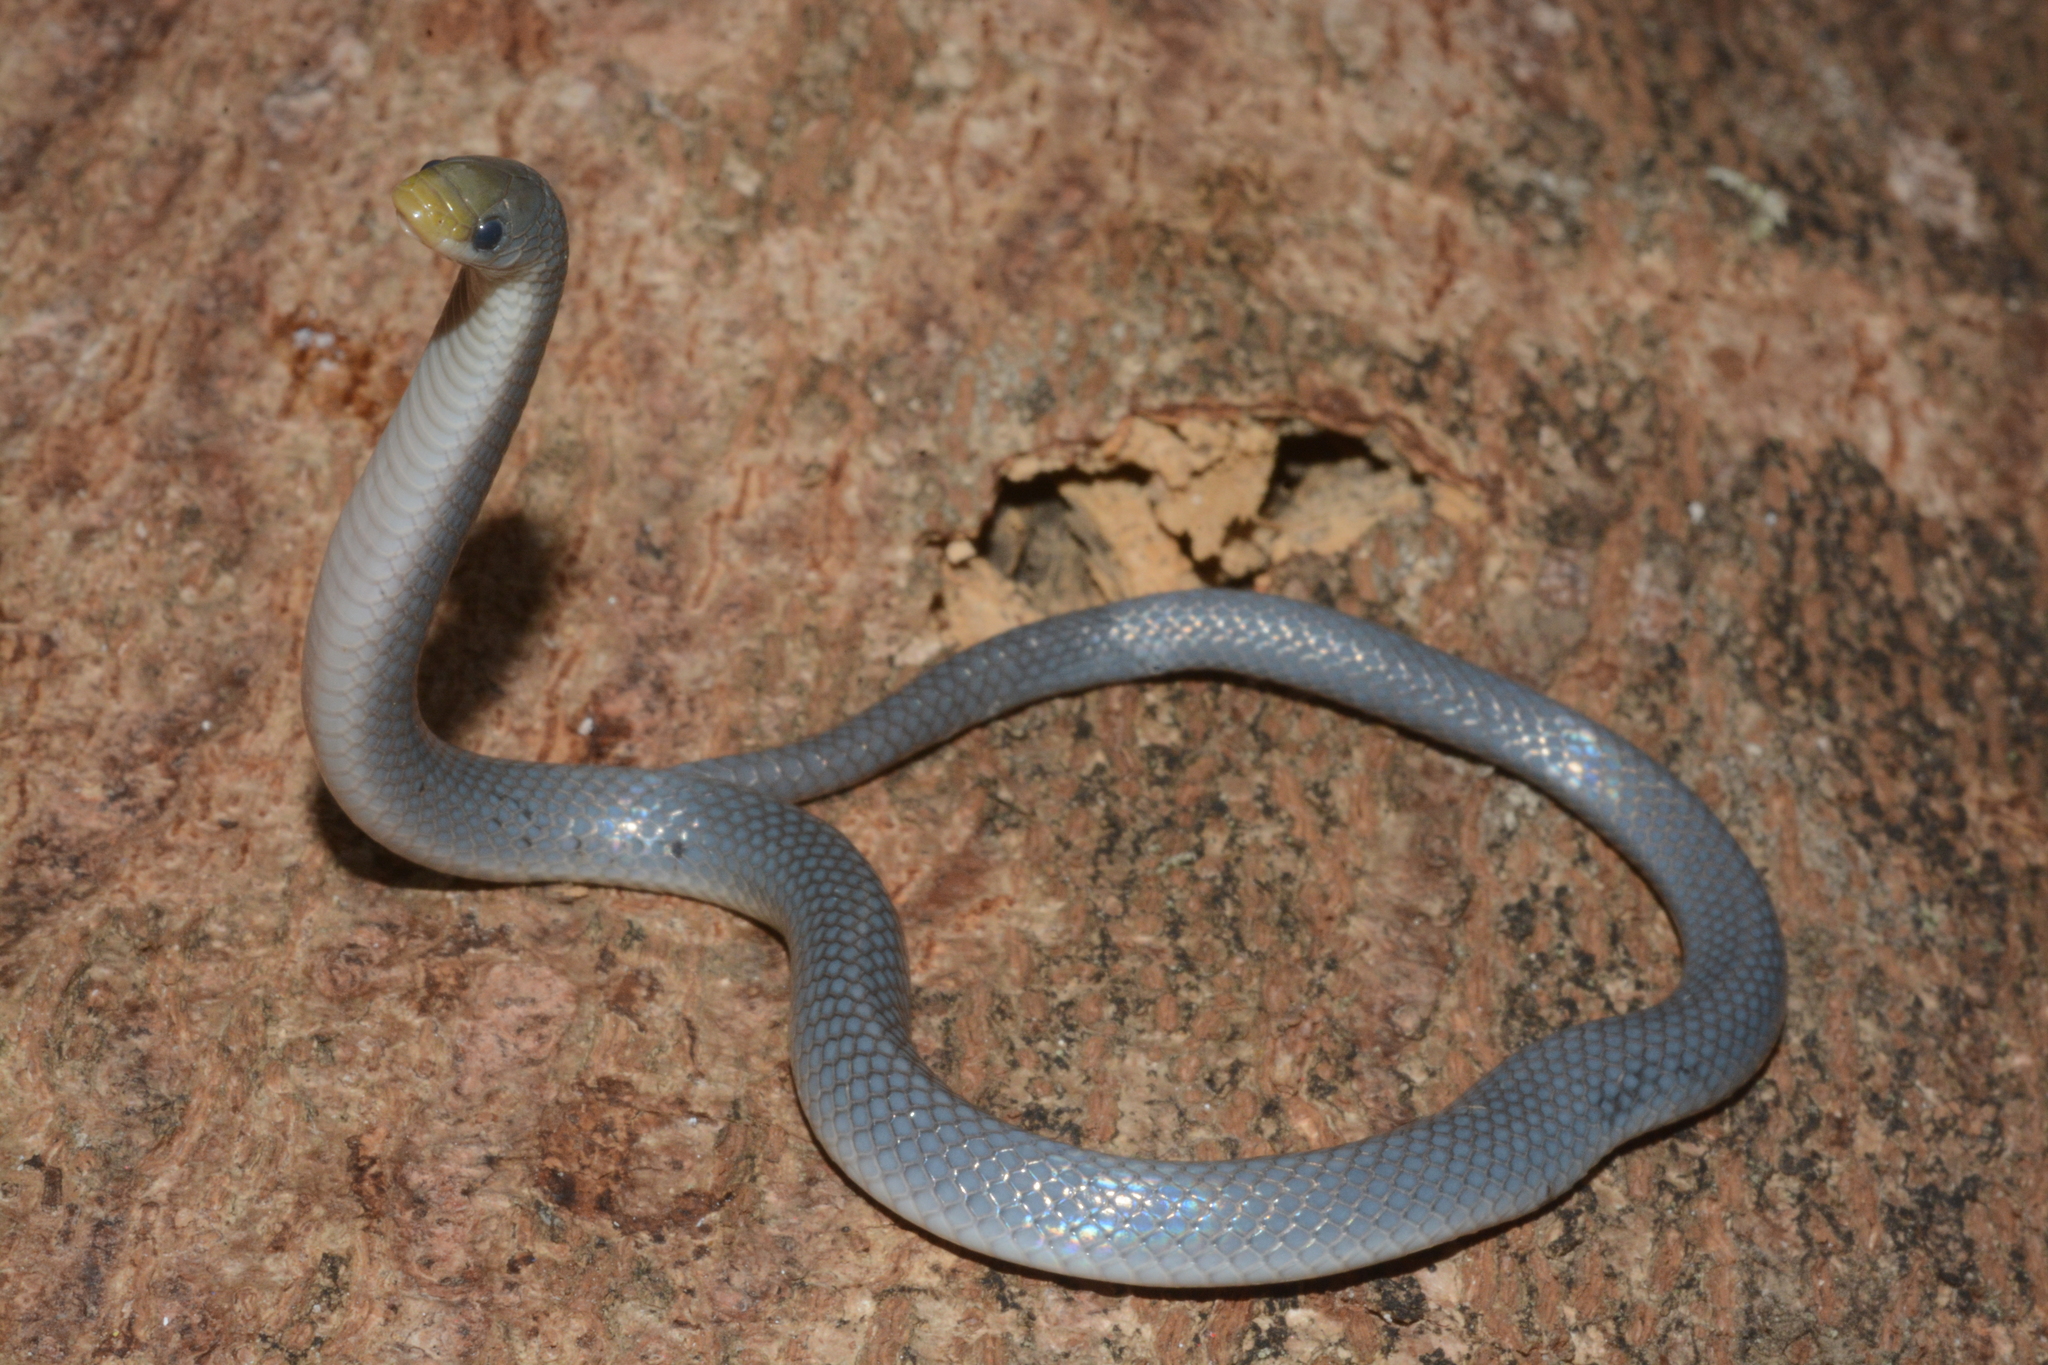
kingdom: Animalia
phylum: Chordata
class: Squamata
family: Prosymnidae
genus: Prosymna
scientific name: Prosymna stuhlmanni
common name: East african shovel-snout snake
